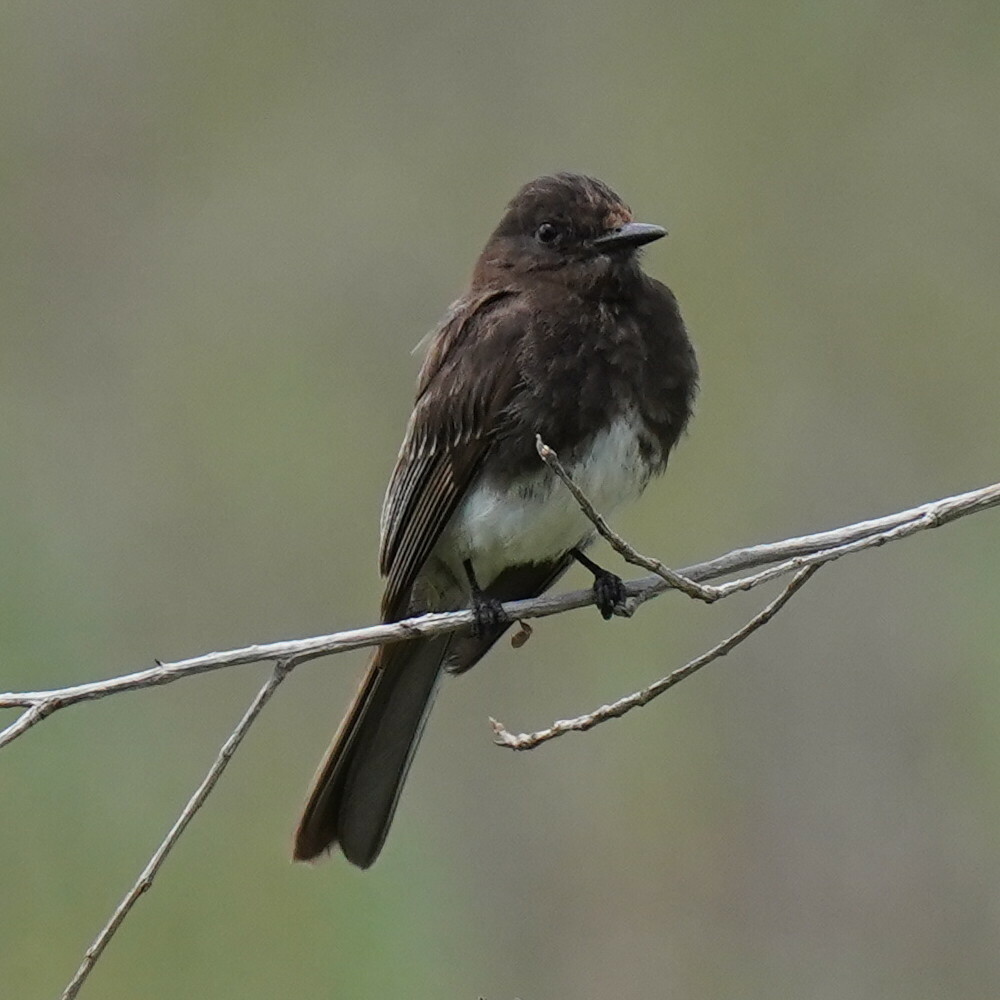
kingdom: Animalia
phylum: Chordata
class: Aves
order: Passeriformes
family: Tyrannidae
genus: Sayornis
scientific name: Sayornis nigricans
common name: Black phoebe
